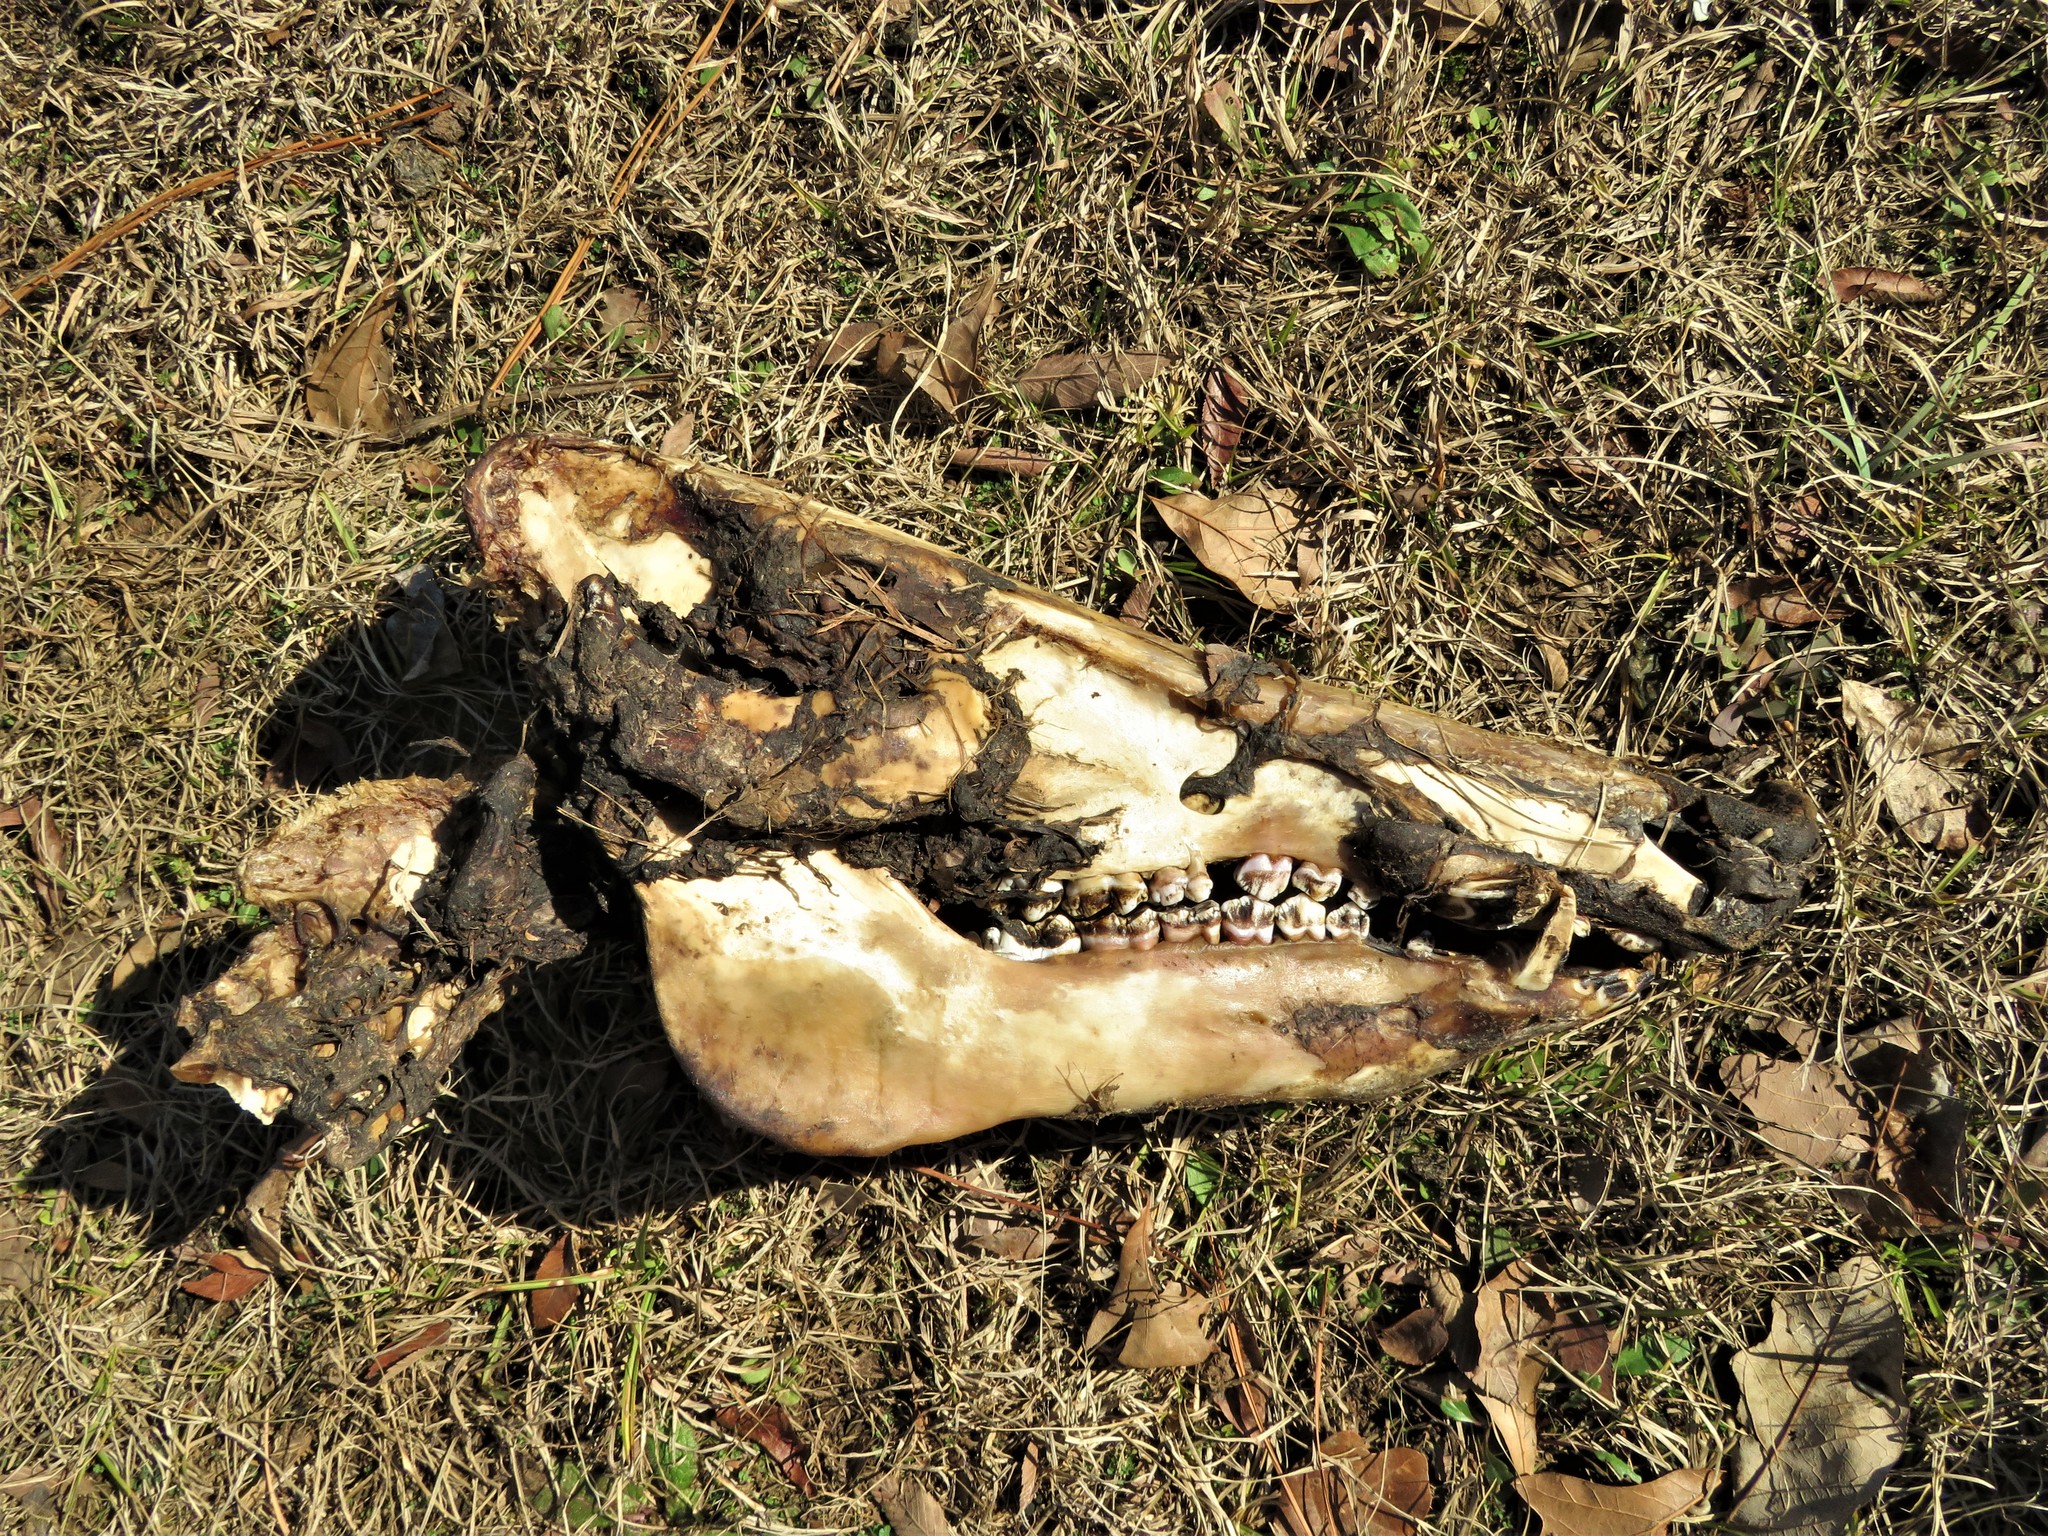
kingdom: Animalia
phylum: Chordata
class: Mammalia
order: Artiodactyla
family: Suidae
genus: Sus
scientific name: Sus scrofa
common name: Wild boar
